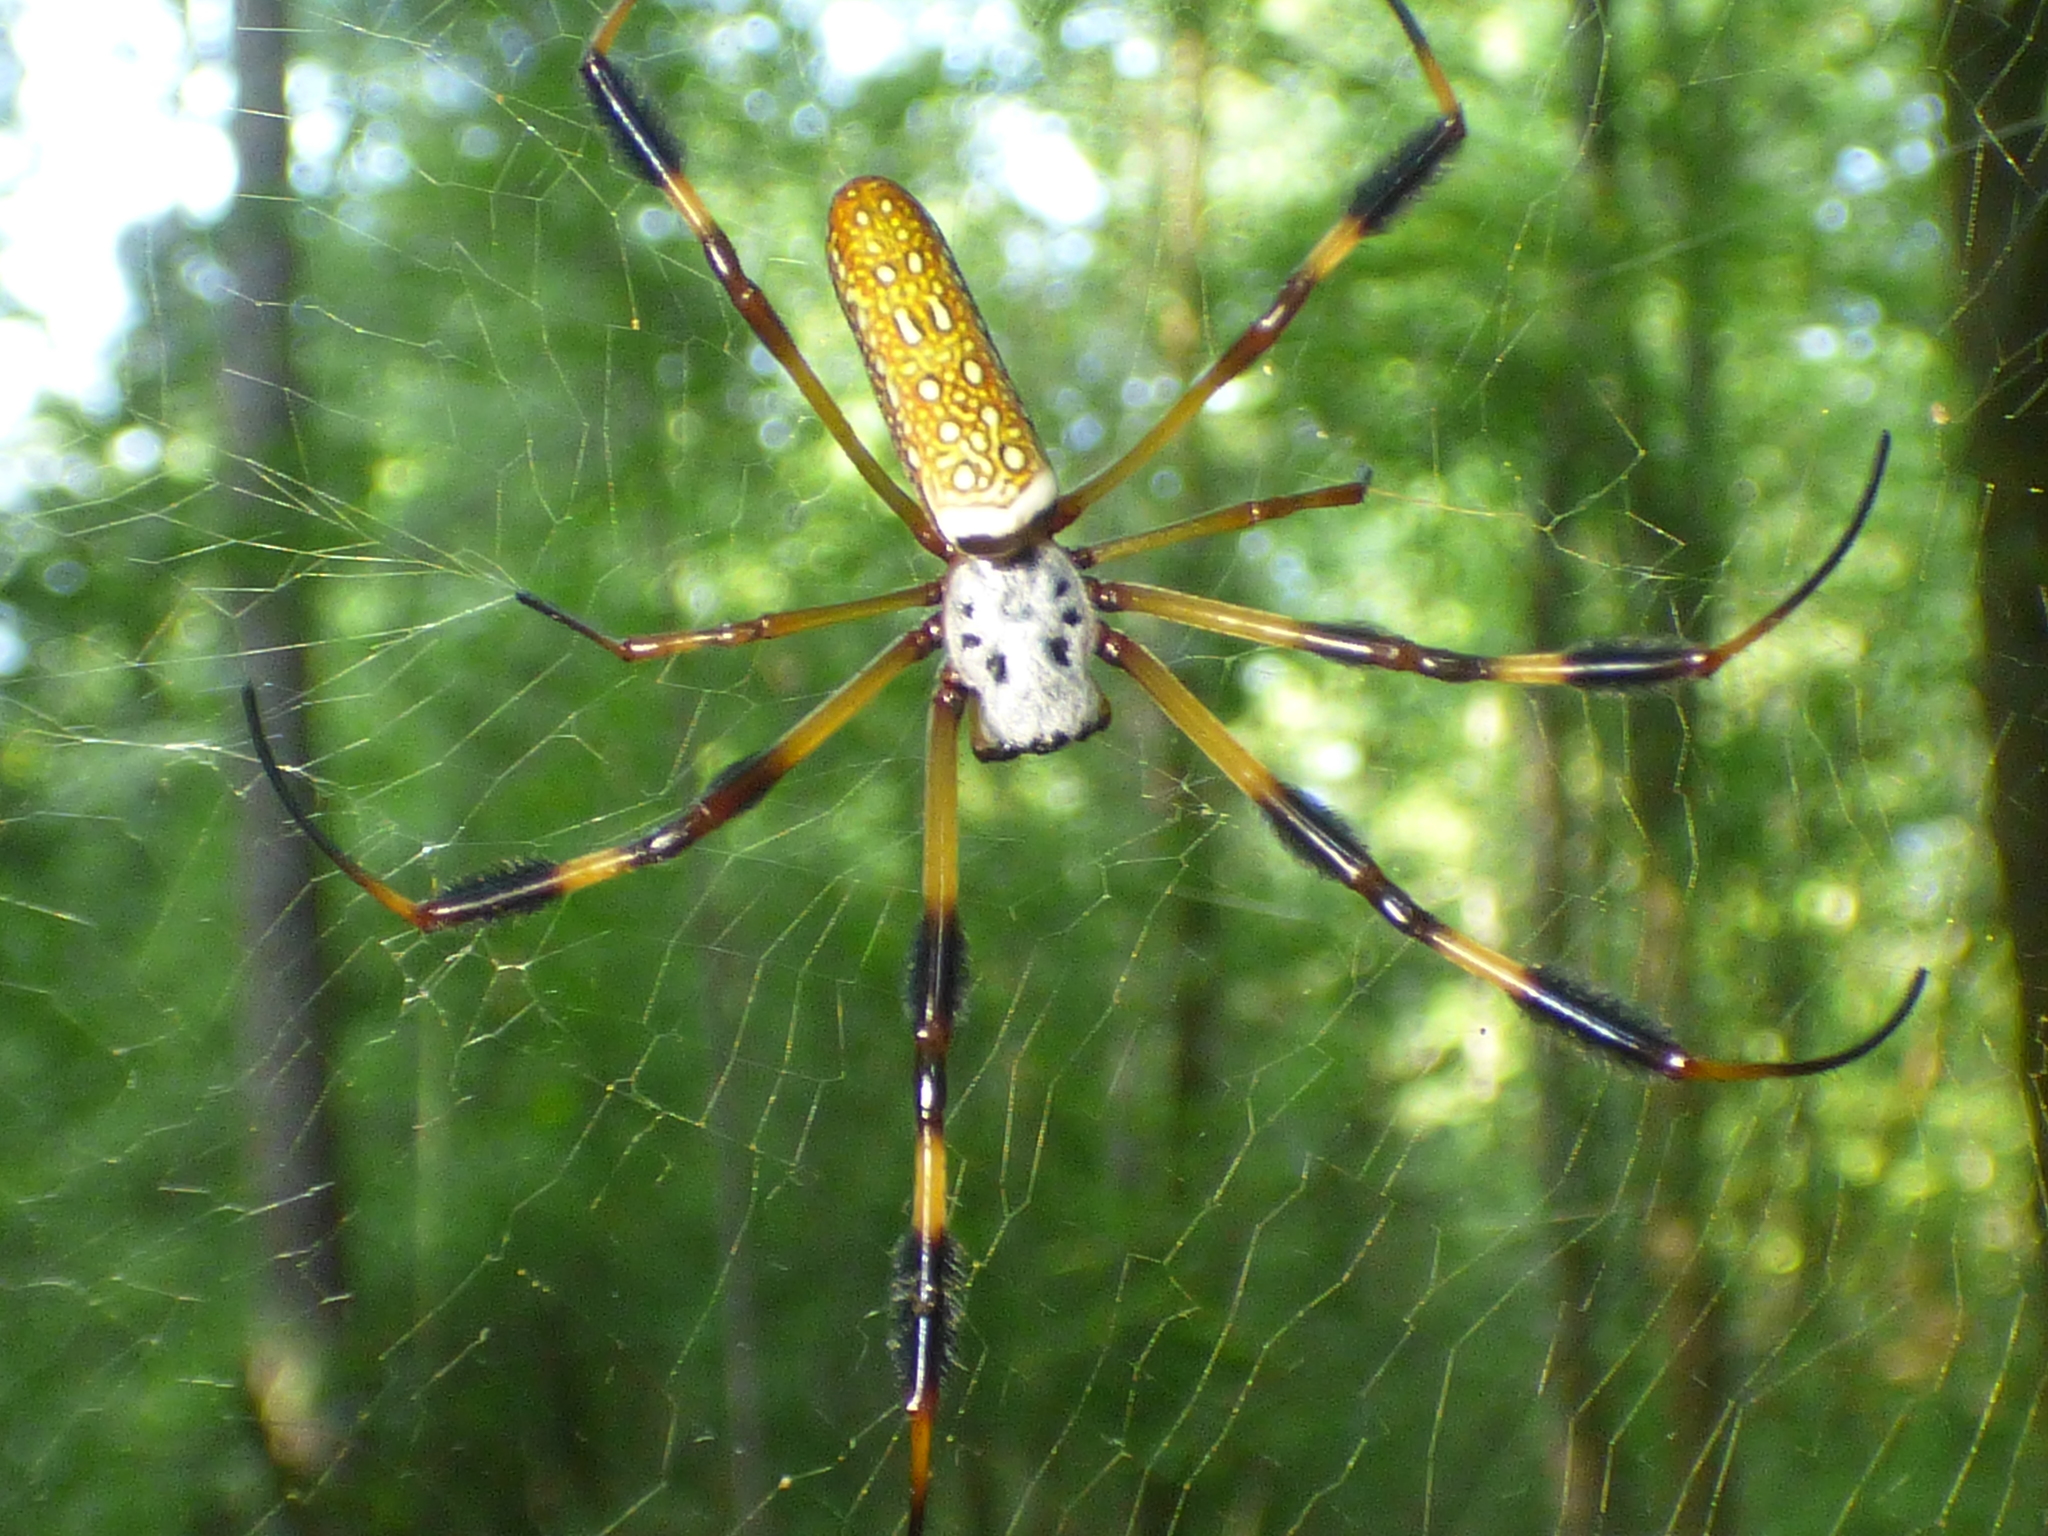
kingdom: Animalia
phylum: Arthropoda
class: Arachnida
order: Araneae
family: Araneidae
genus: Trichonephila
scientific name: Trichonephila clavipes
